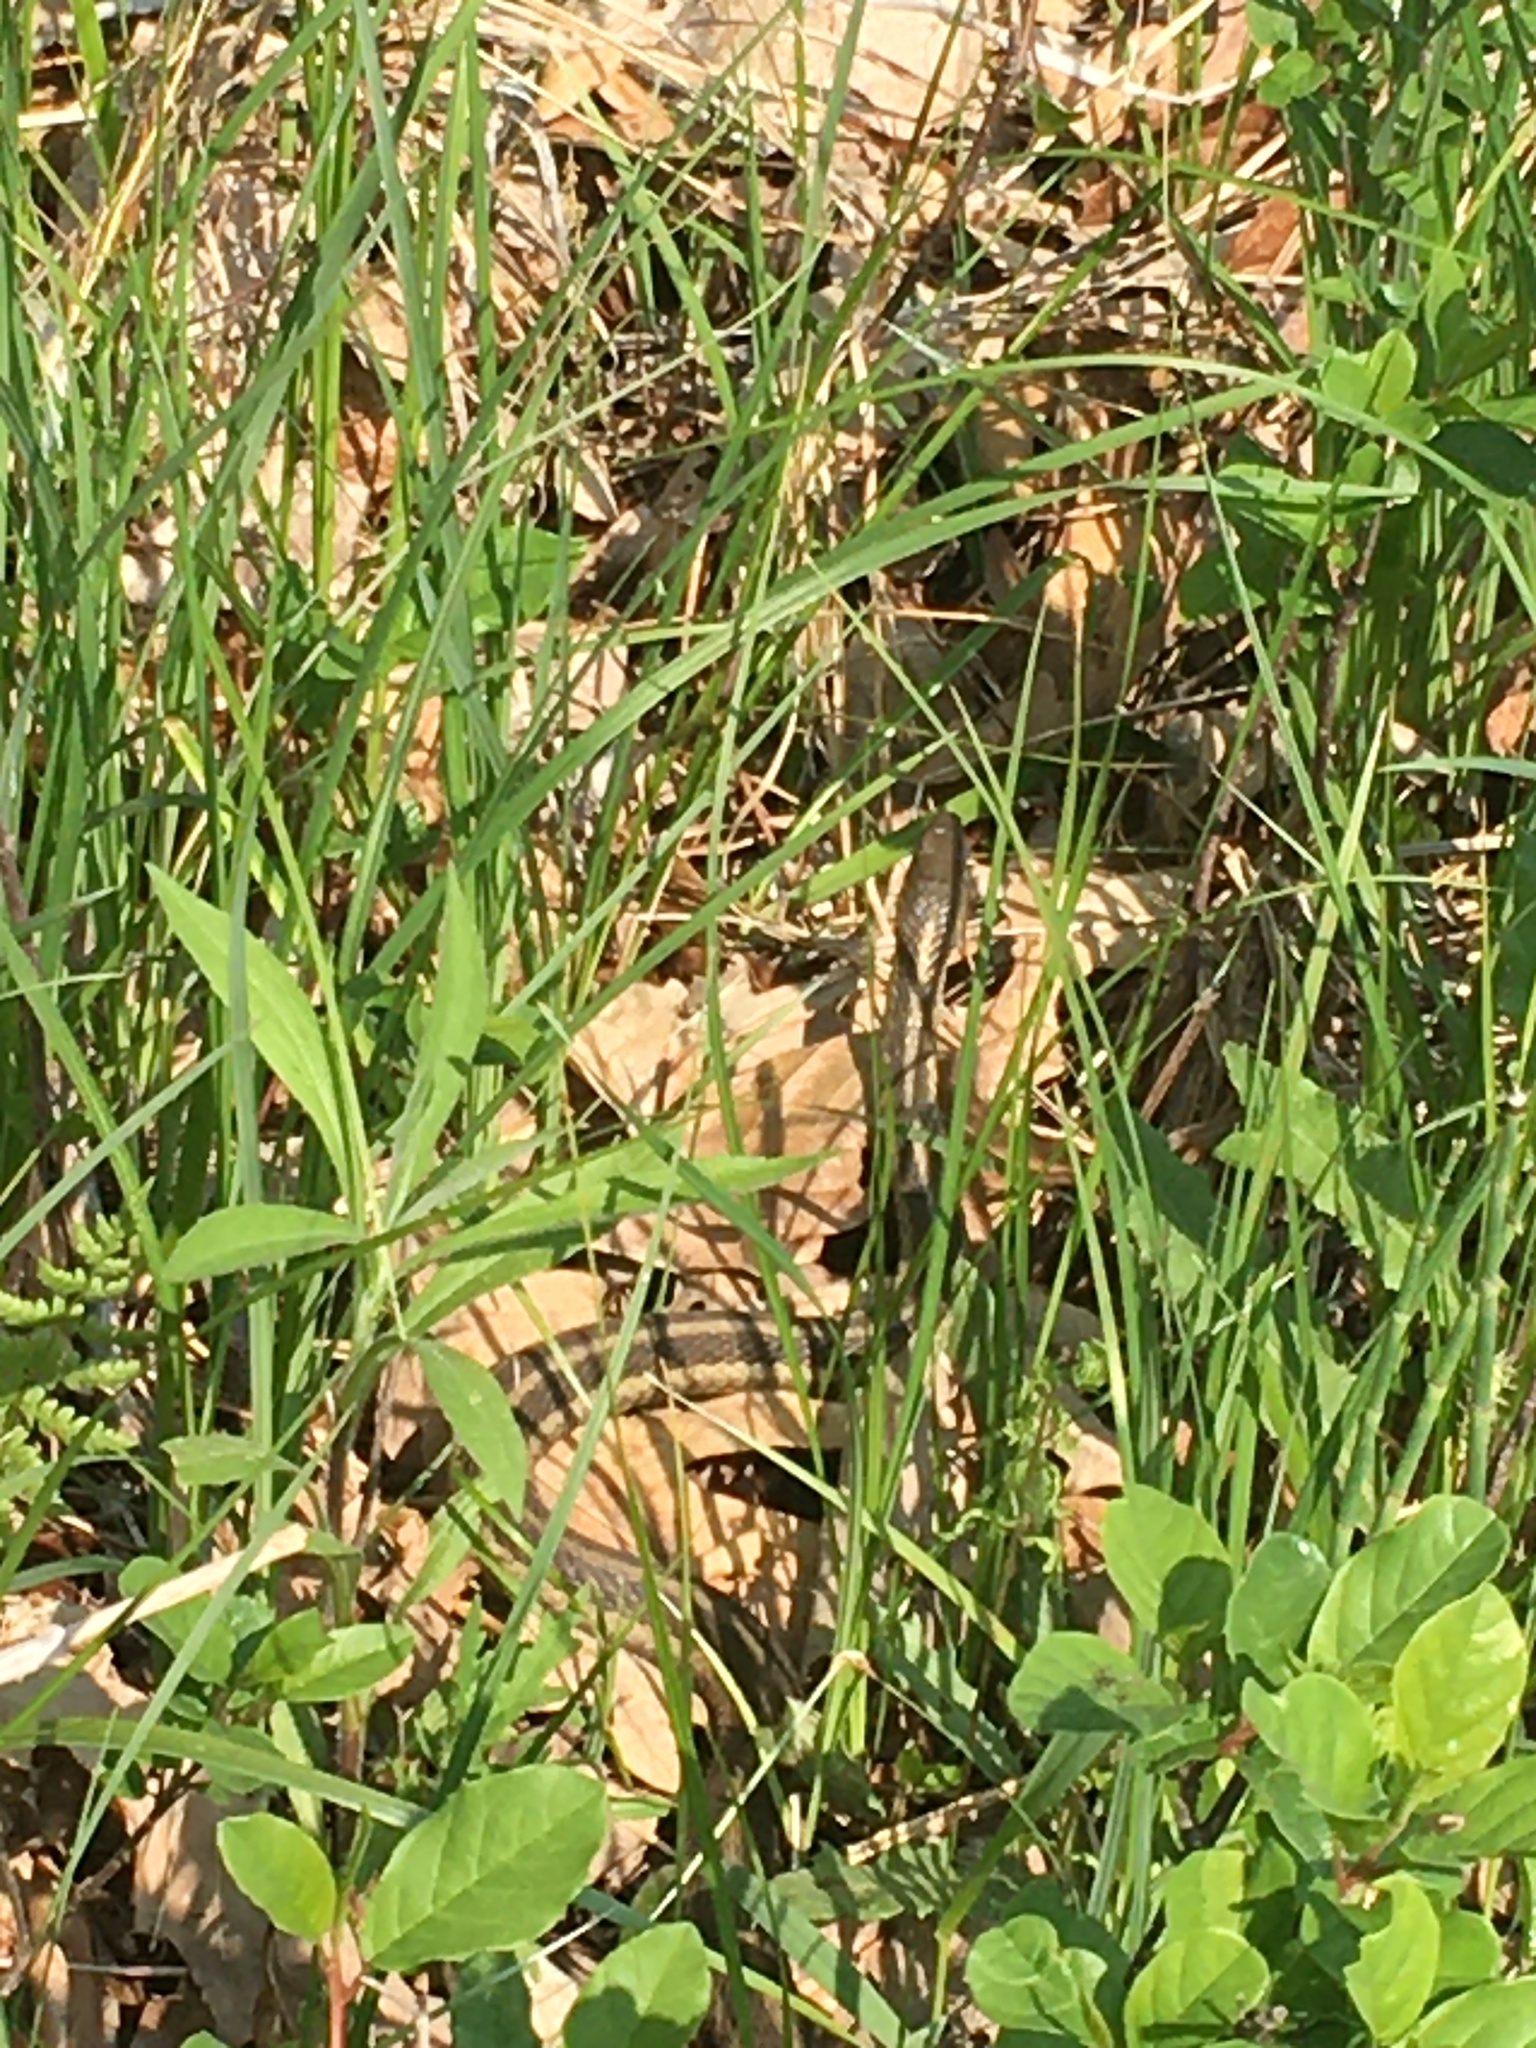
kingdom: Animalia
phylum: Chordata
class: Squamata
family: Colubridae
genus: Thamnophis
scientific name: Thamnophis sirtalis
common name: Common garter snake
